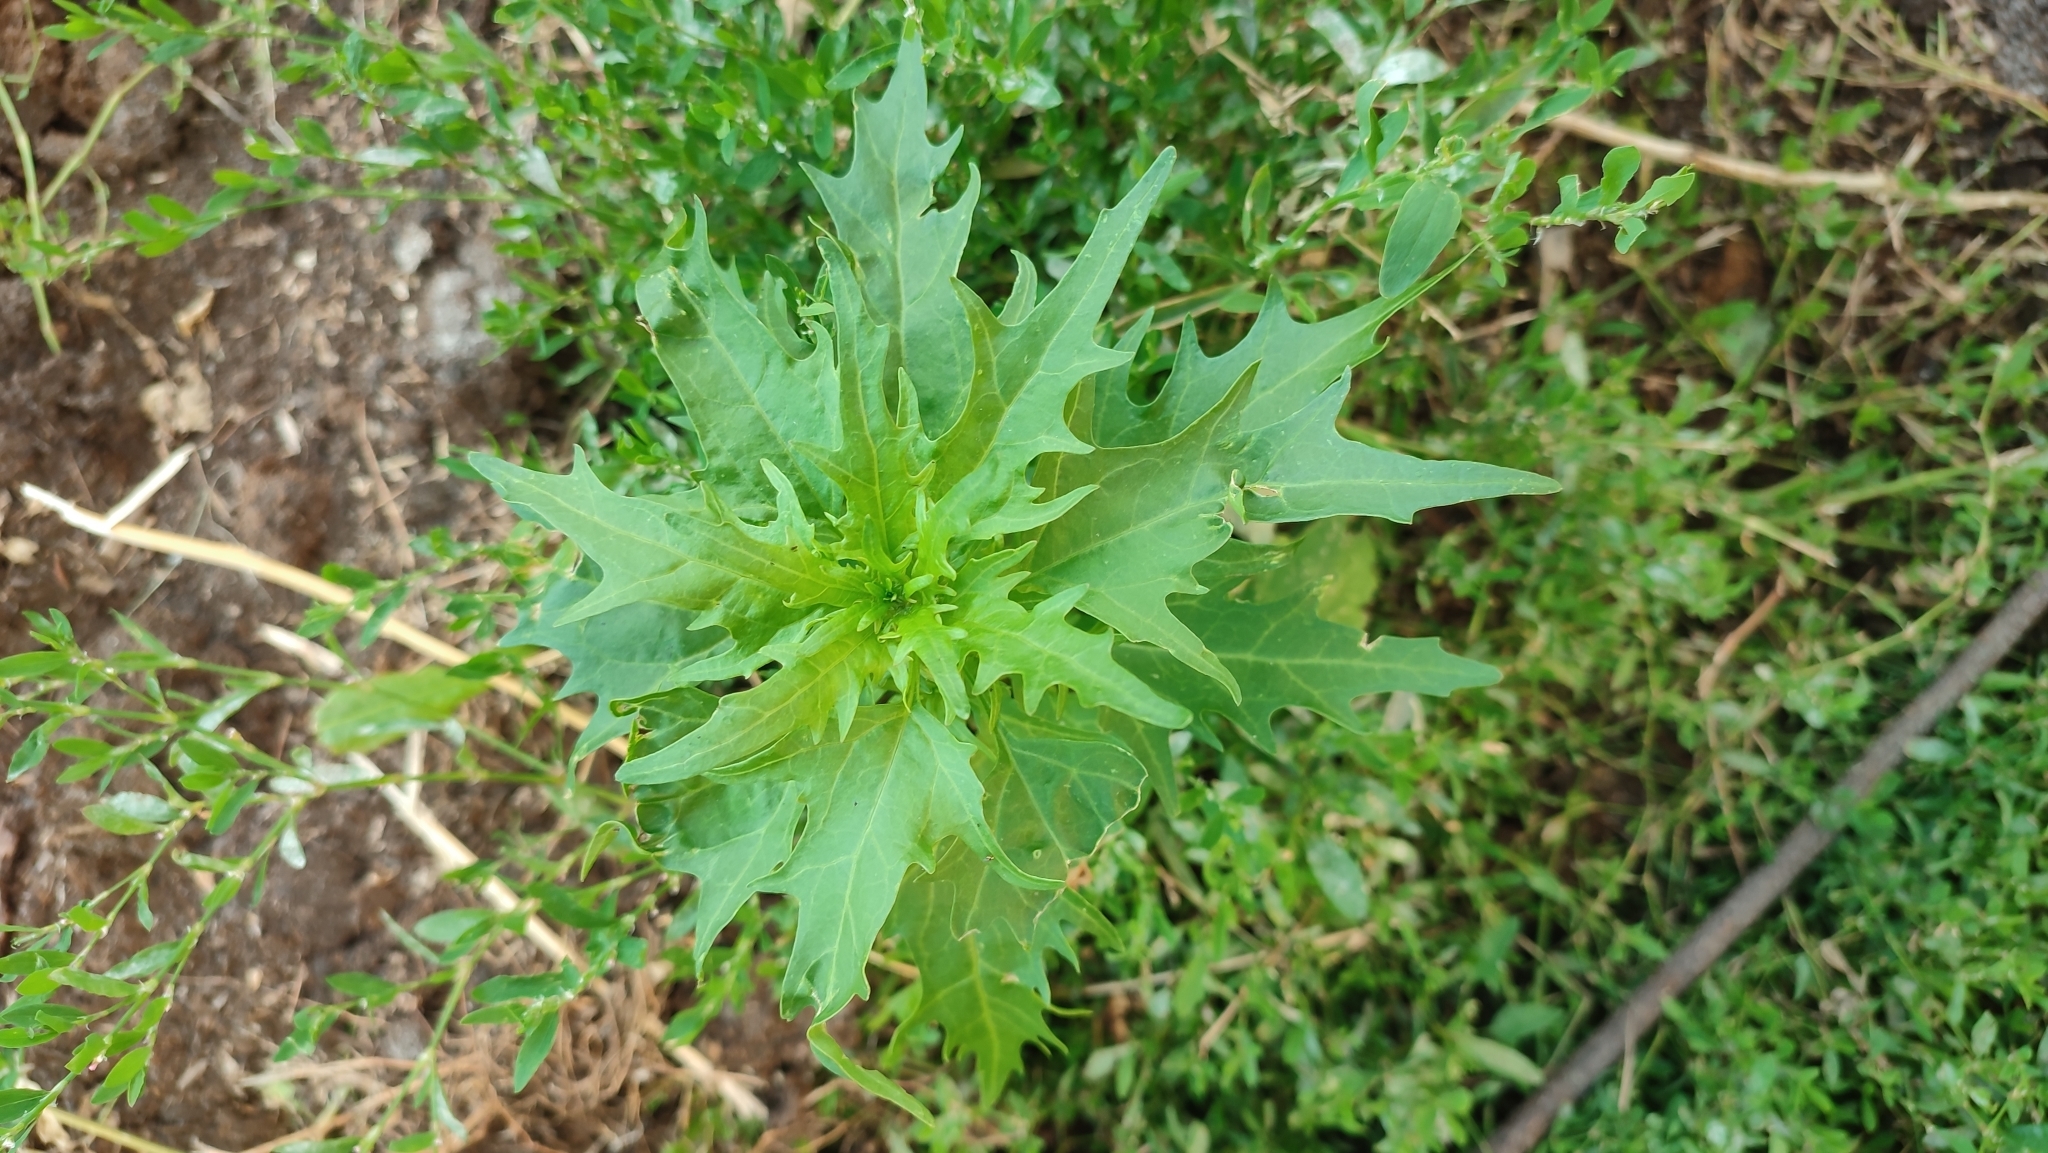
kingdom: Plantae
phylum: Tracheophyta
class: Magnoliopsida
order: Caryophyllales
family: Amaranthaceae
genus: Oxybasis
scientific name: Oxybasis rubra
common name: Red goosefoot
